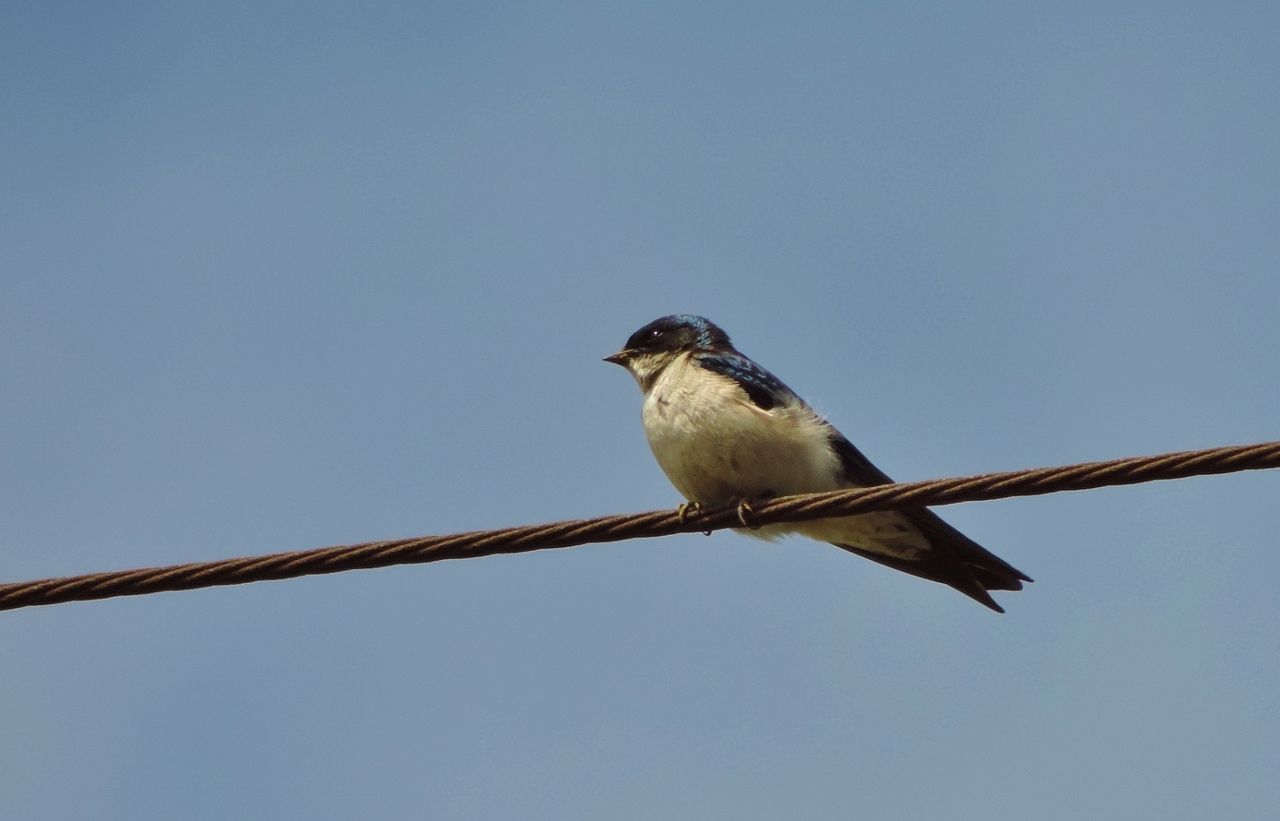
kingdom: Animalia
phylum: Chordata
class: Aves
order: Passeriformes
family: Hirundinidae
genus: Hirundo
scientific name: Hirundo dimidiata
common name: Pearl-breasted swallow
